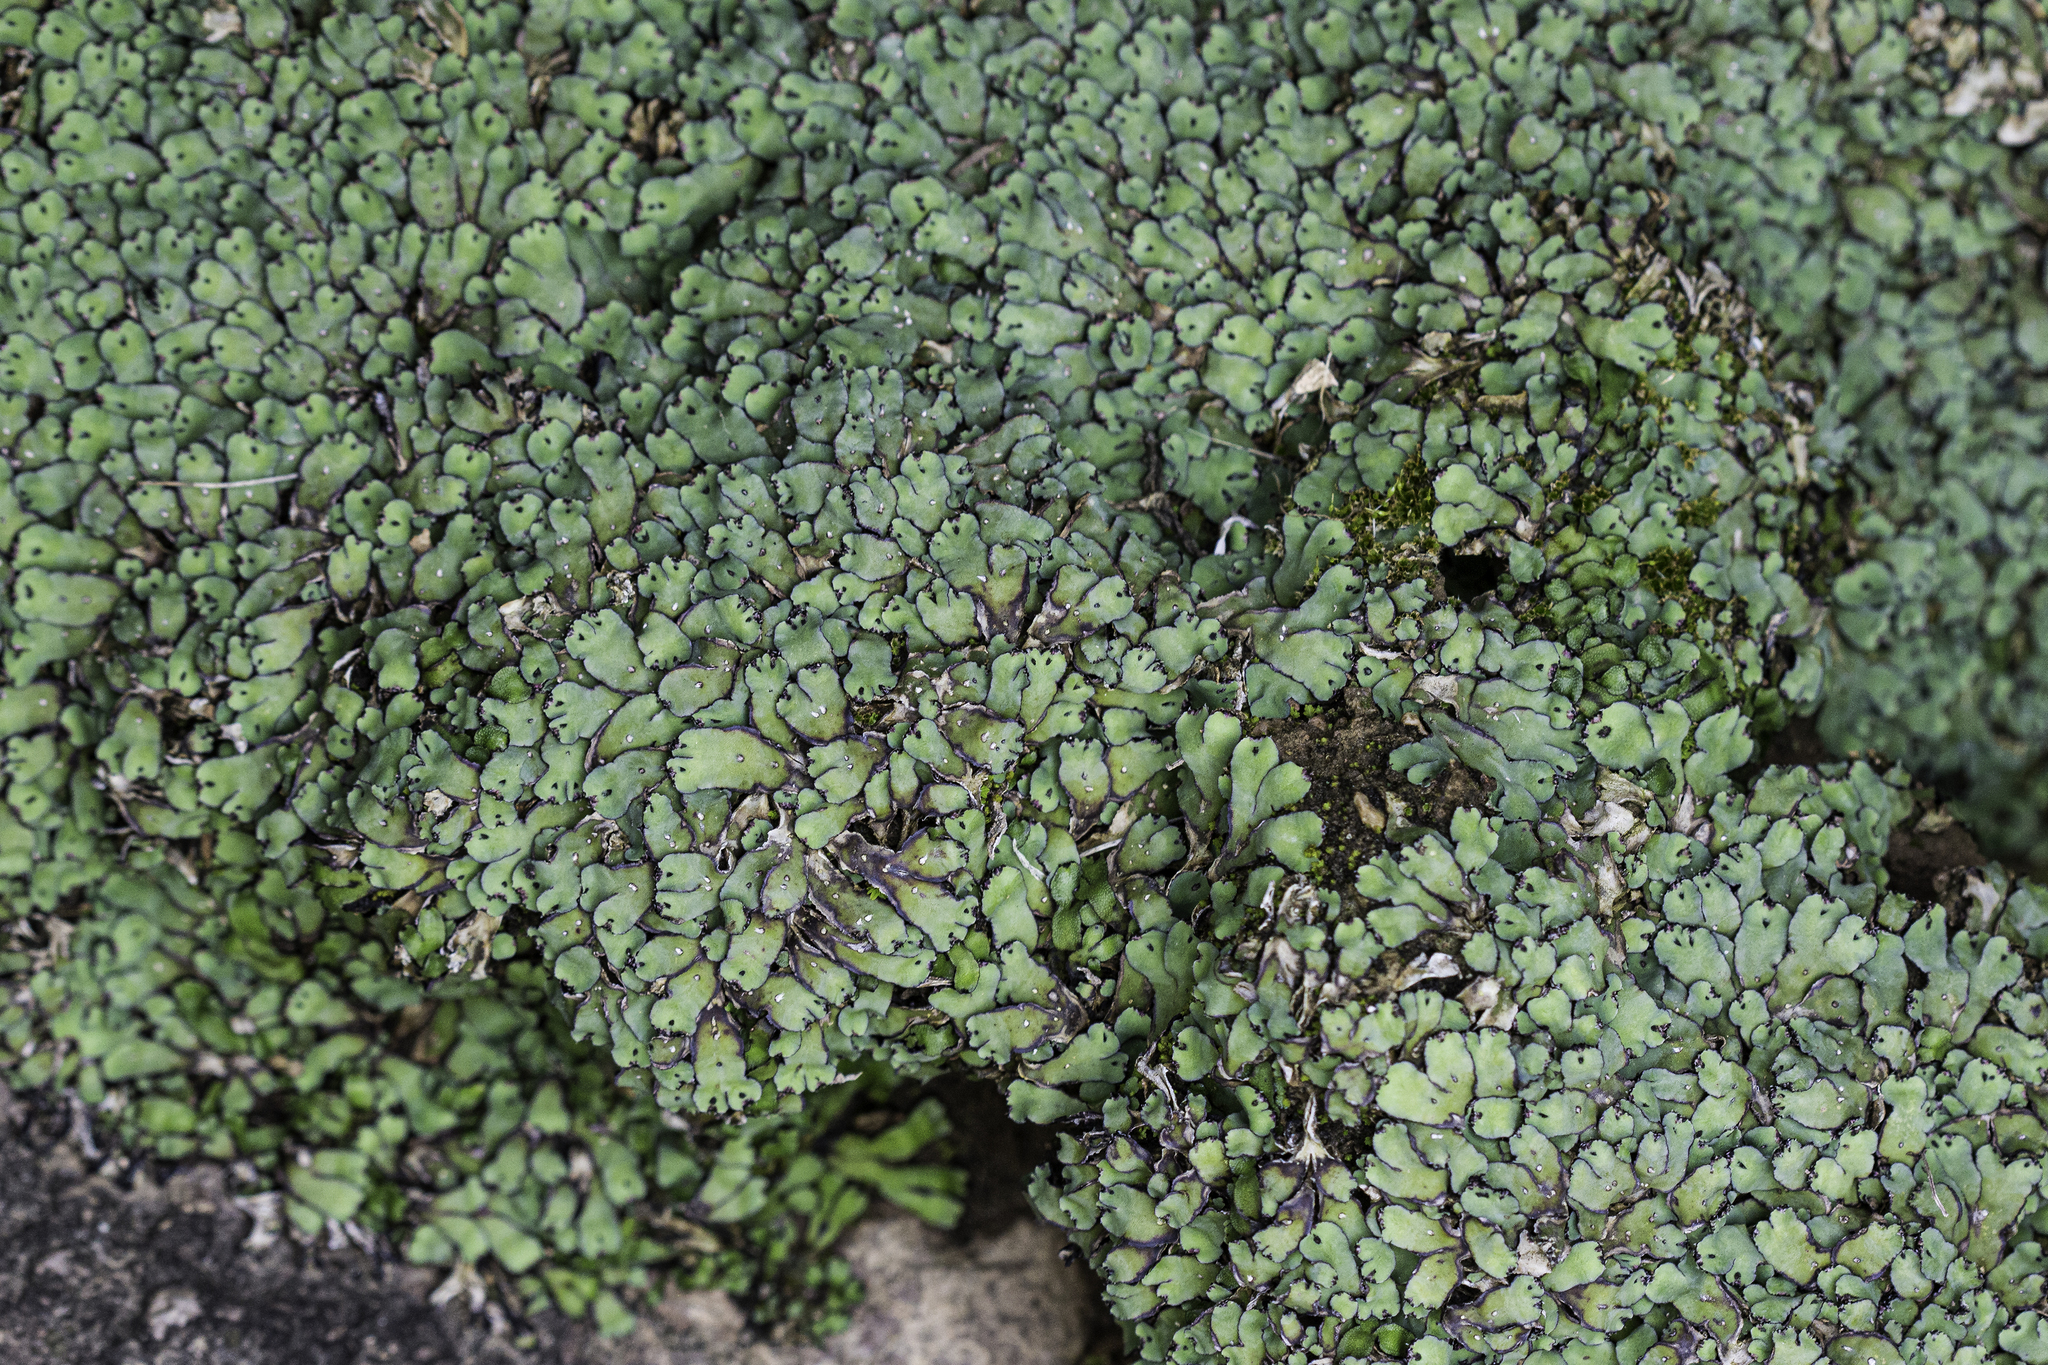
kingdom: Plantae
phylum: Marchantiophyta
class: Marchantiopsida
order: Marchantiales
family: Aytoniaceae
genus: Plagiochasma
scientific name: Plagiochasma rupestre
